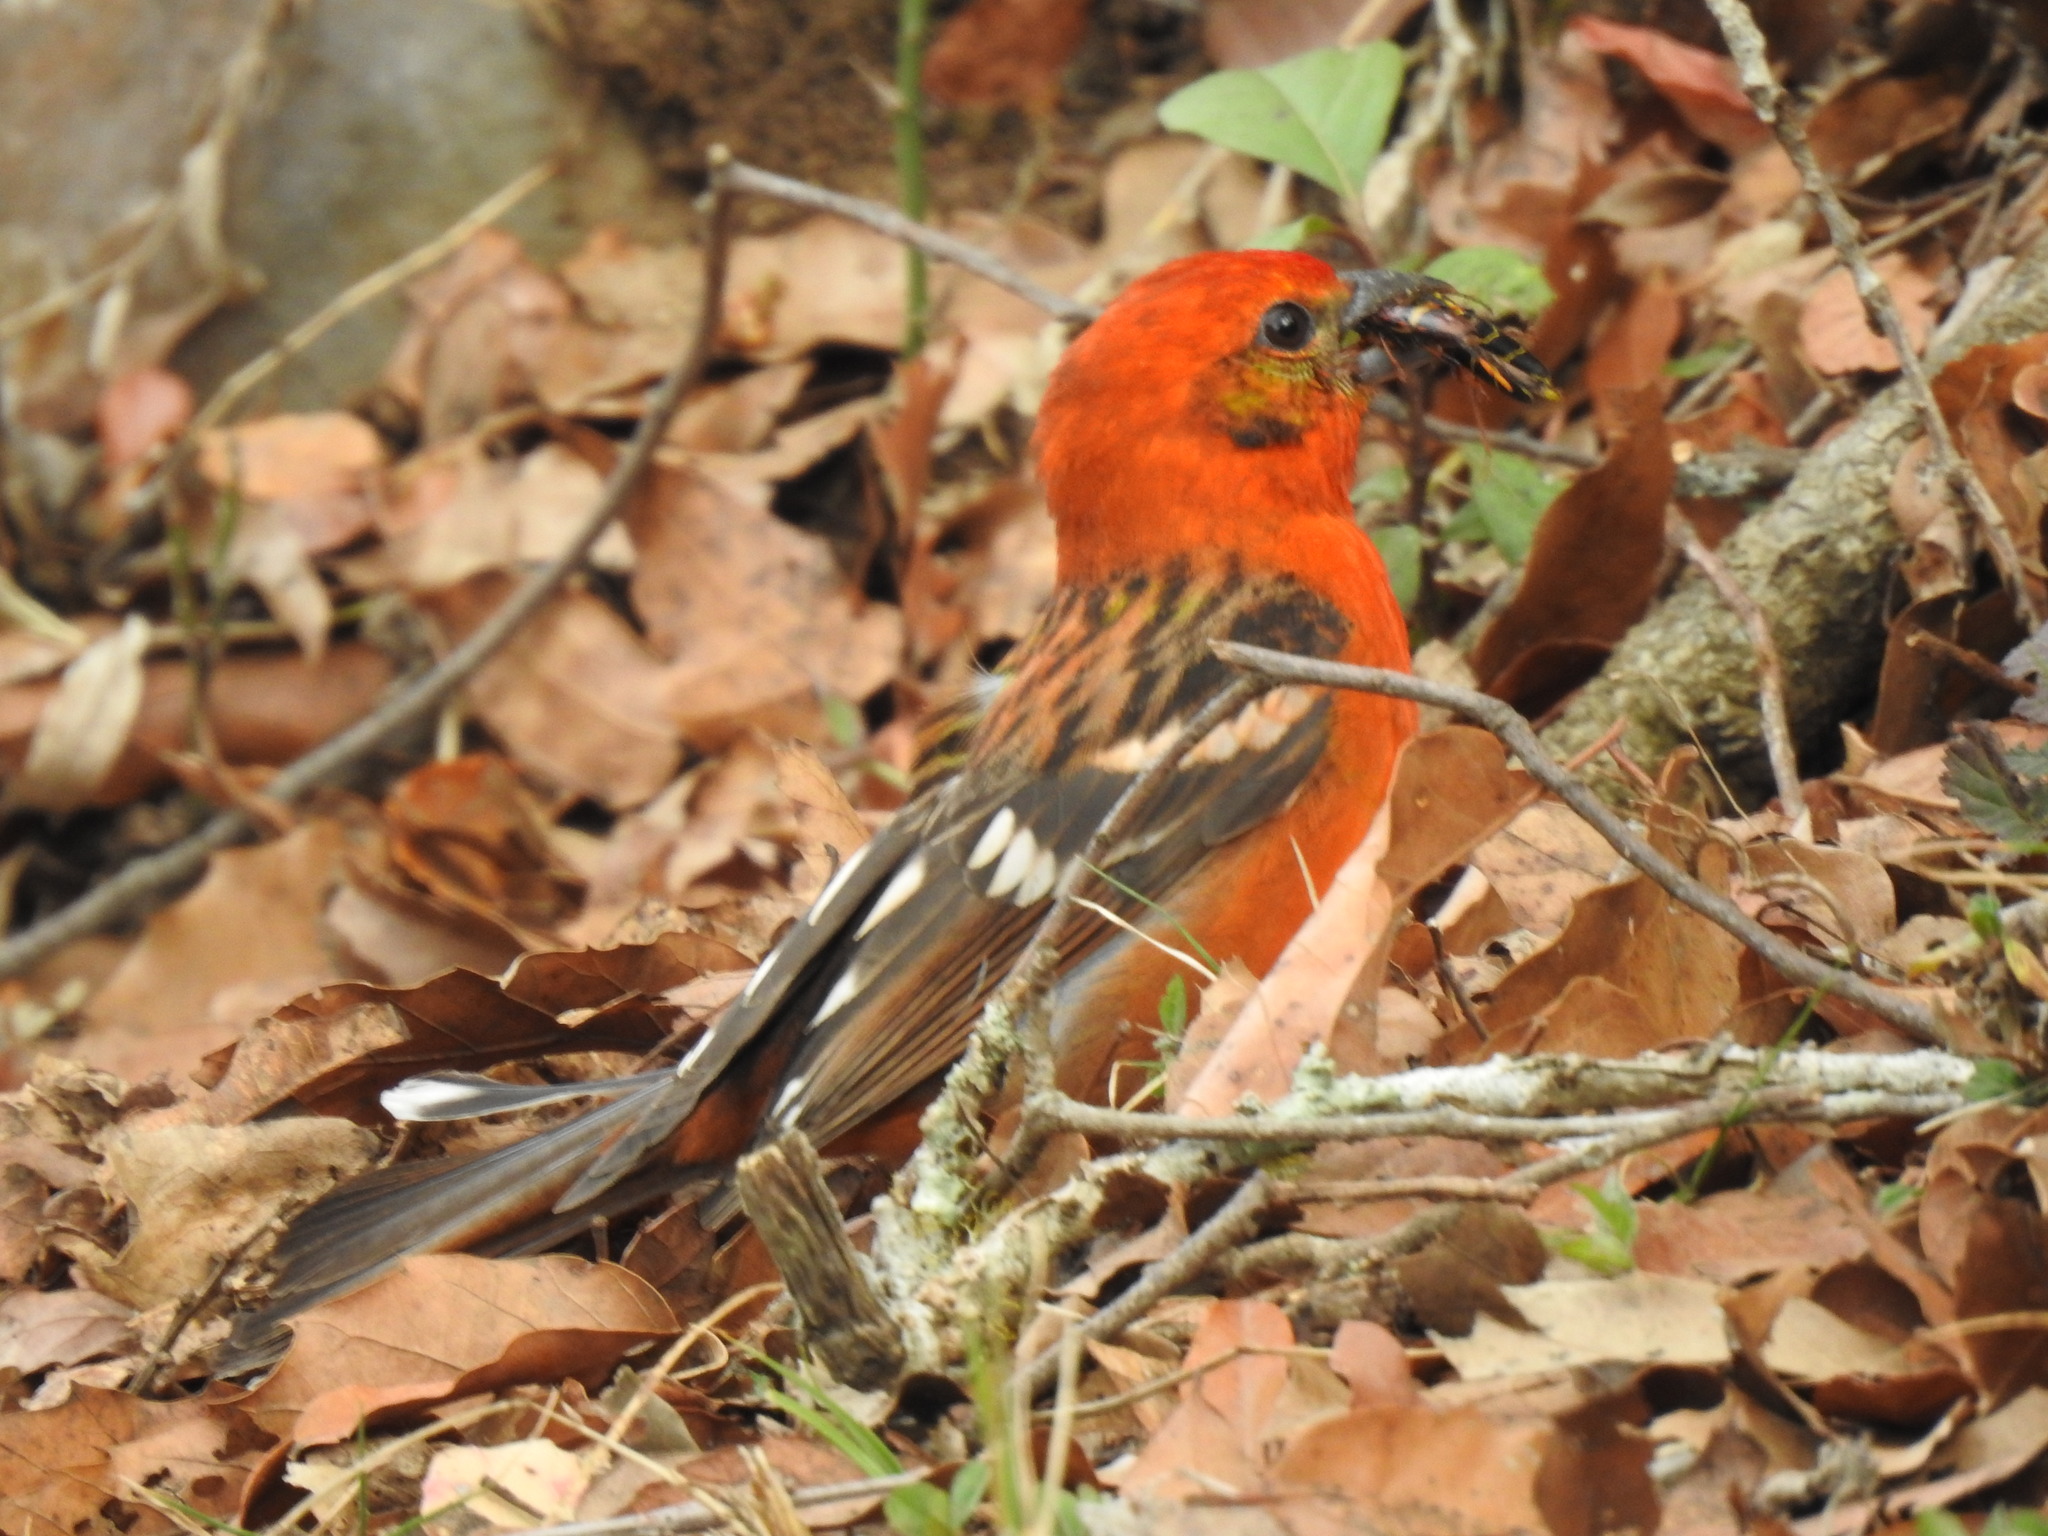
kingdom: Animalia
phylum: Chordata
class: Aves
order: Passeriformes
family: Cardinalidae
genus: Piranga
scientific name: Piranga bidentata
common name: Flame-colored tanager
